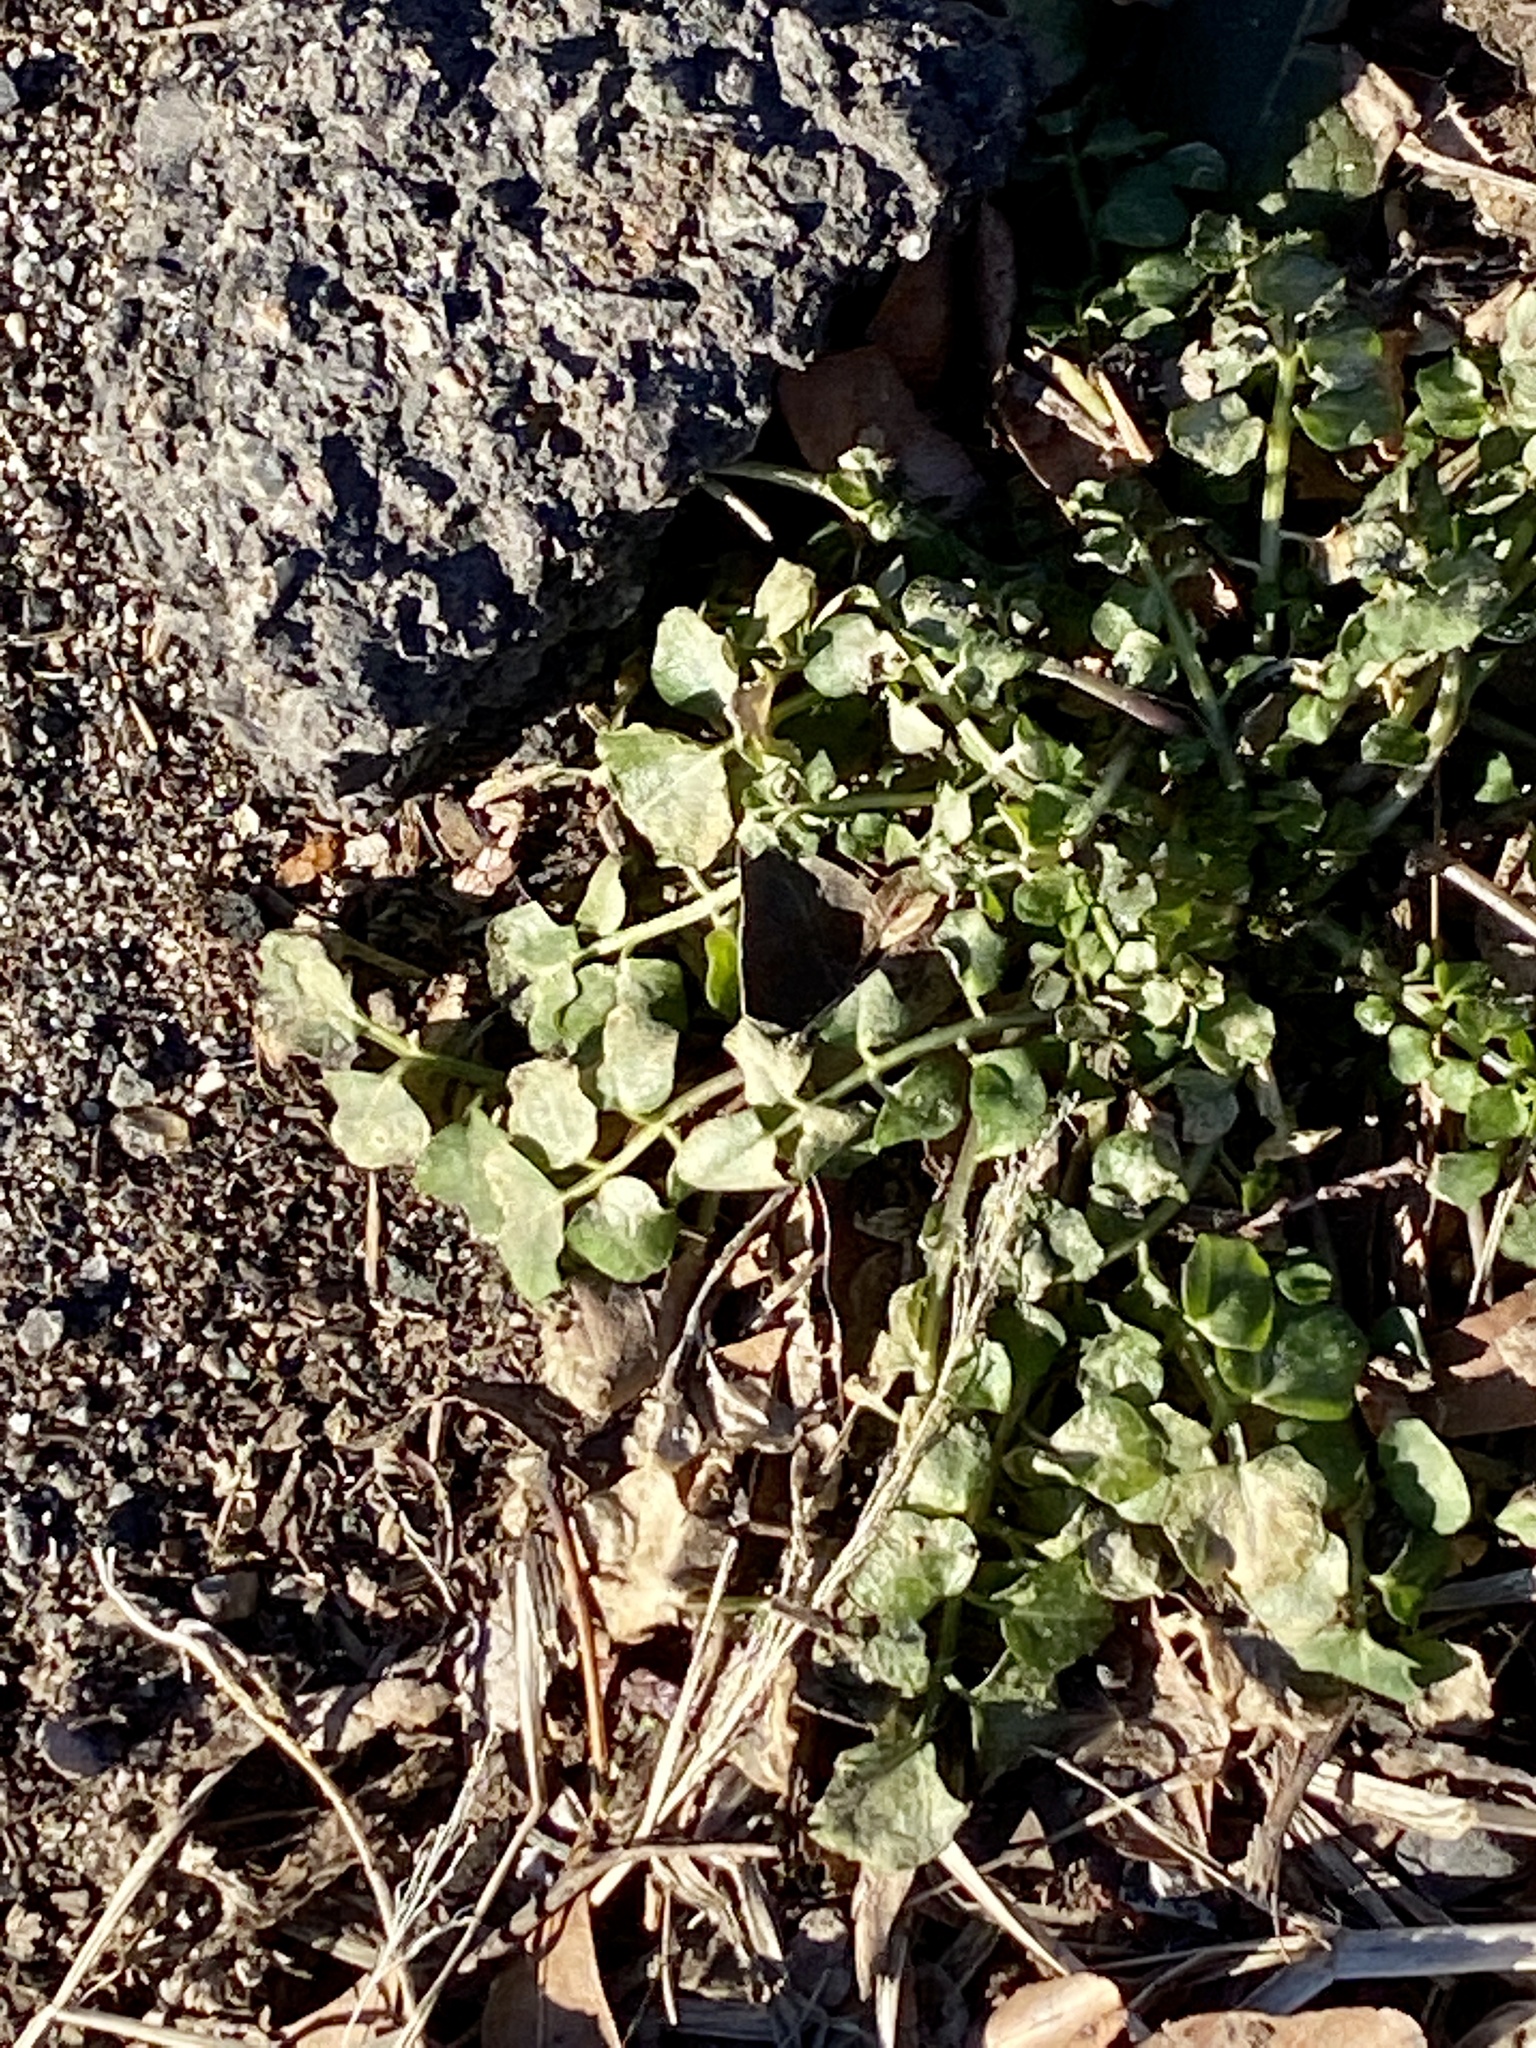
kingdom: Plantae
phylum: Tracheophyta
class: Magnoliopsida
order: Brassicales
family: Brassicaceae
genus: Cardamine
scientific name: Cardamine hirsuta
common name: Hairy bittercress
